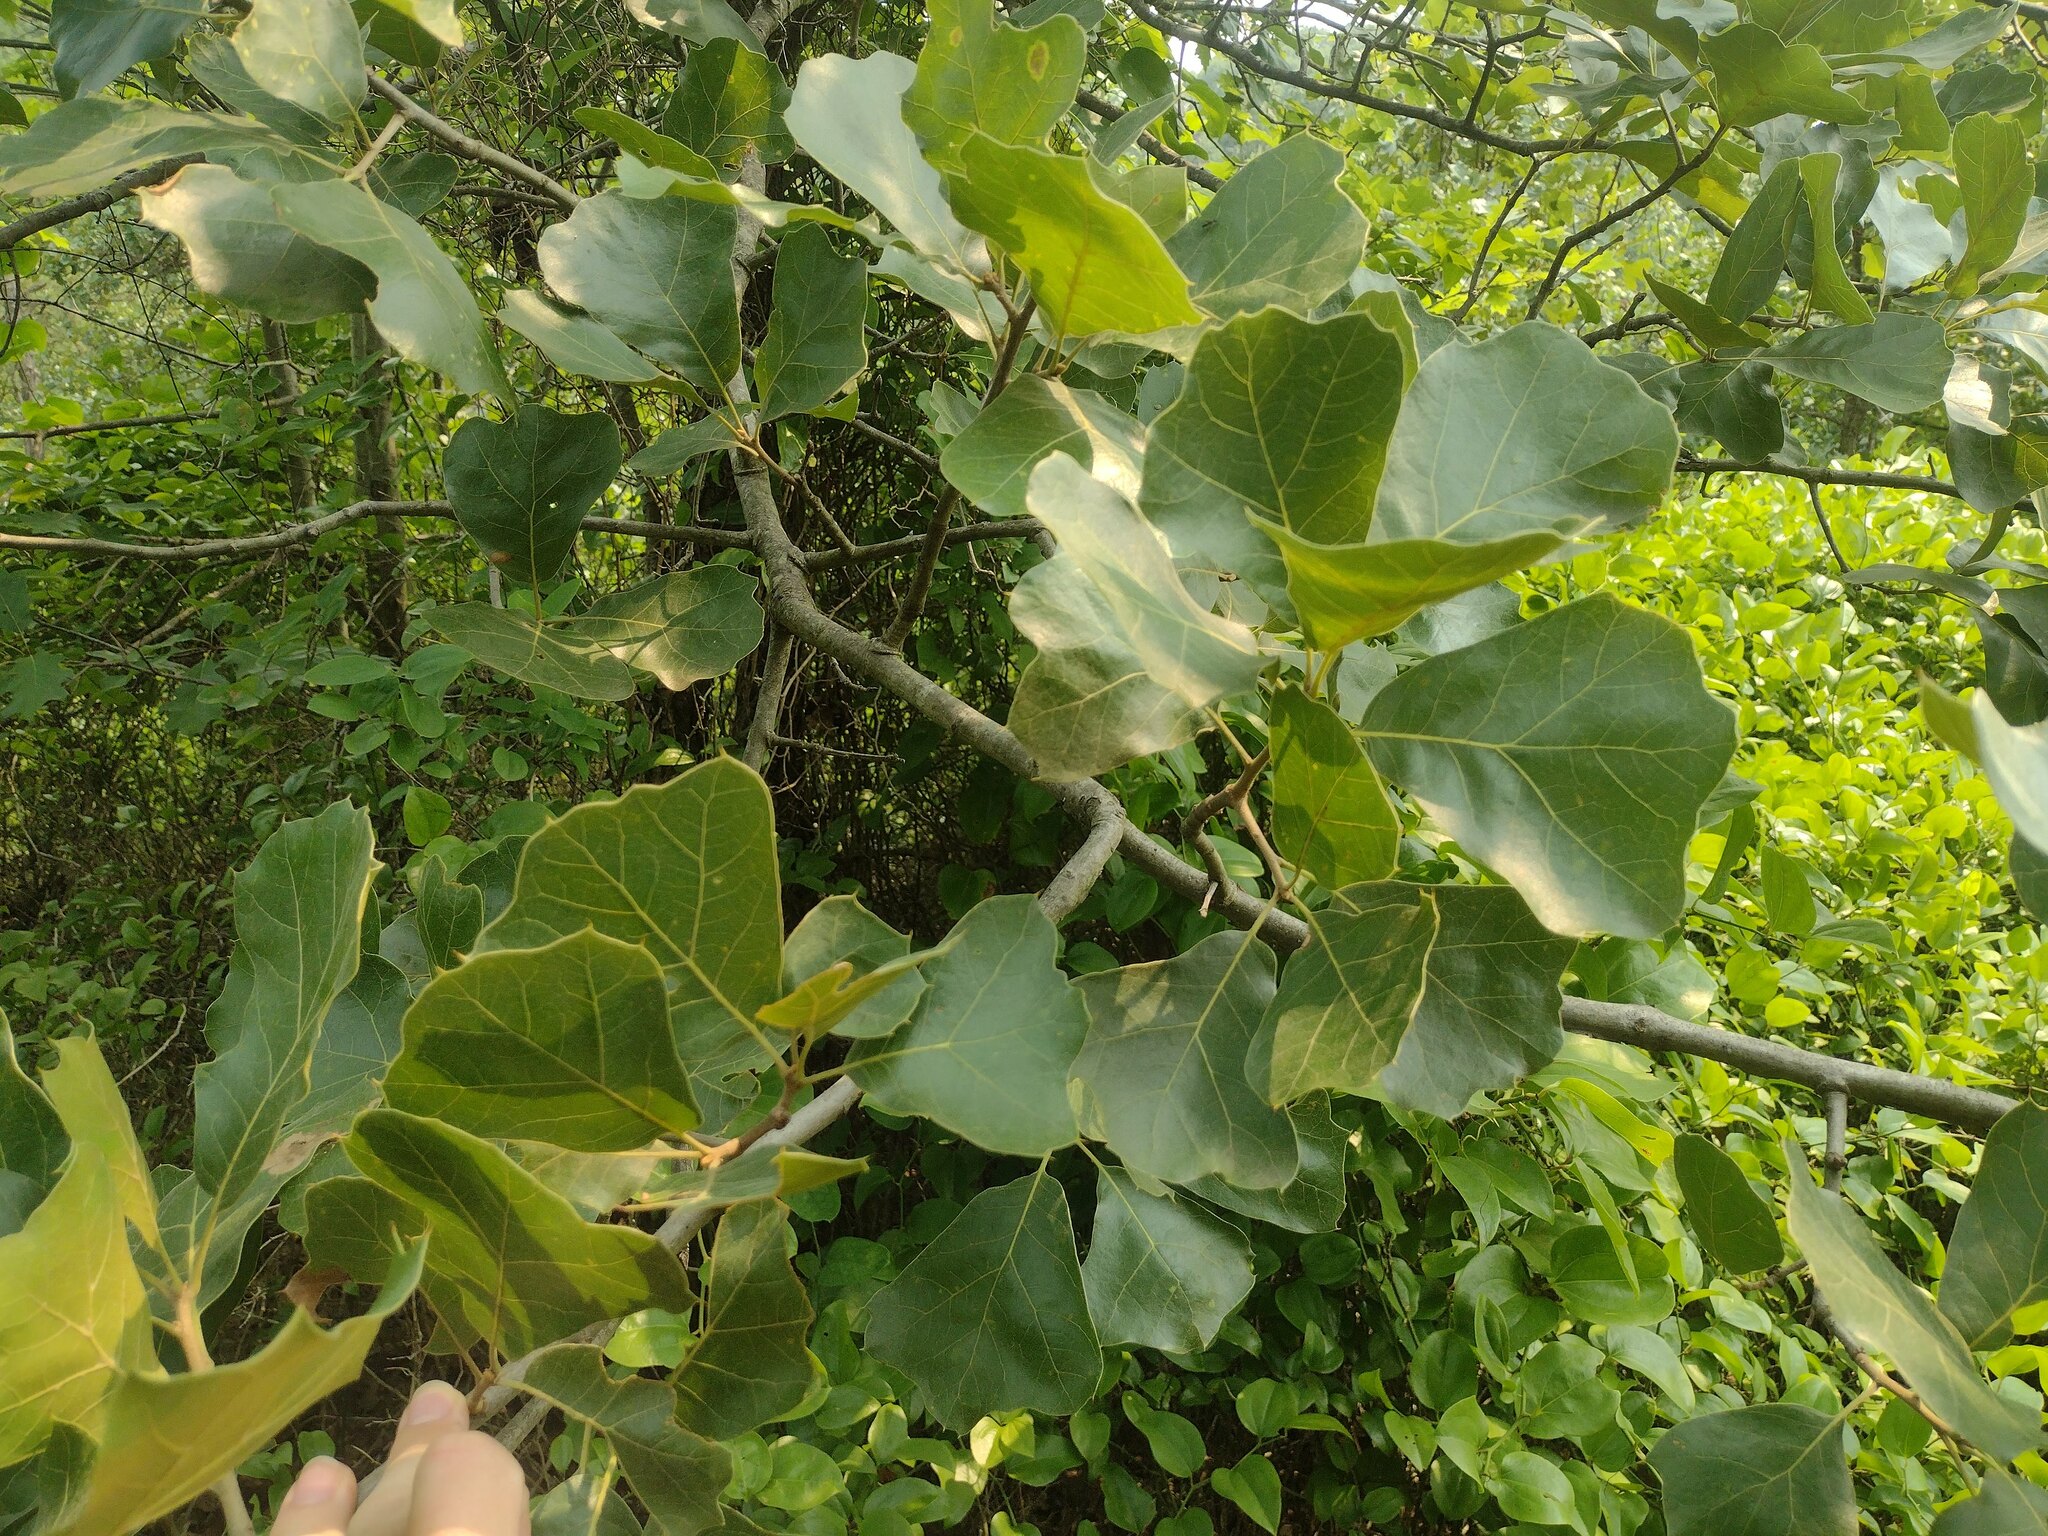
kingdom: Plantae
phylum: Tracheophyta
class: Magnoliopsida
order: Fagales
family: Fagaceae
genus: Quercus
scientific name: Quercus marilandica
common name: Blackjack oak
